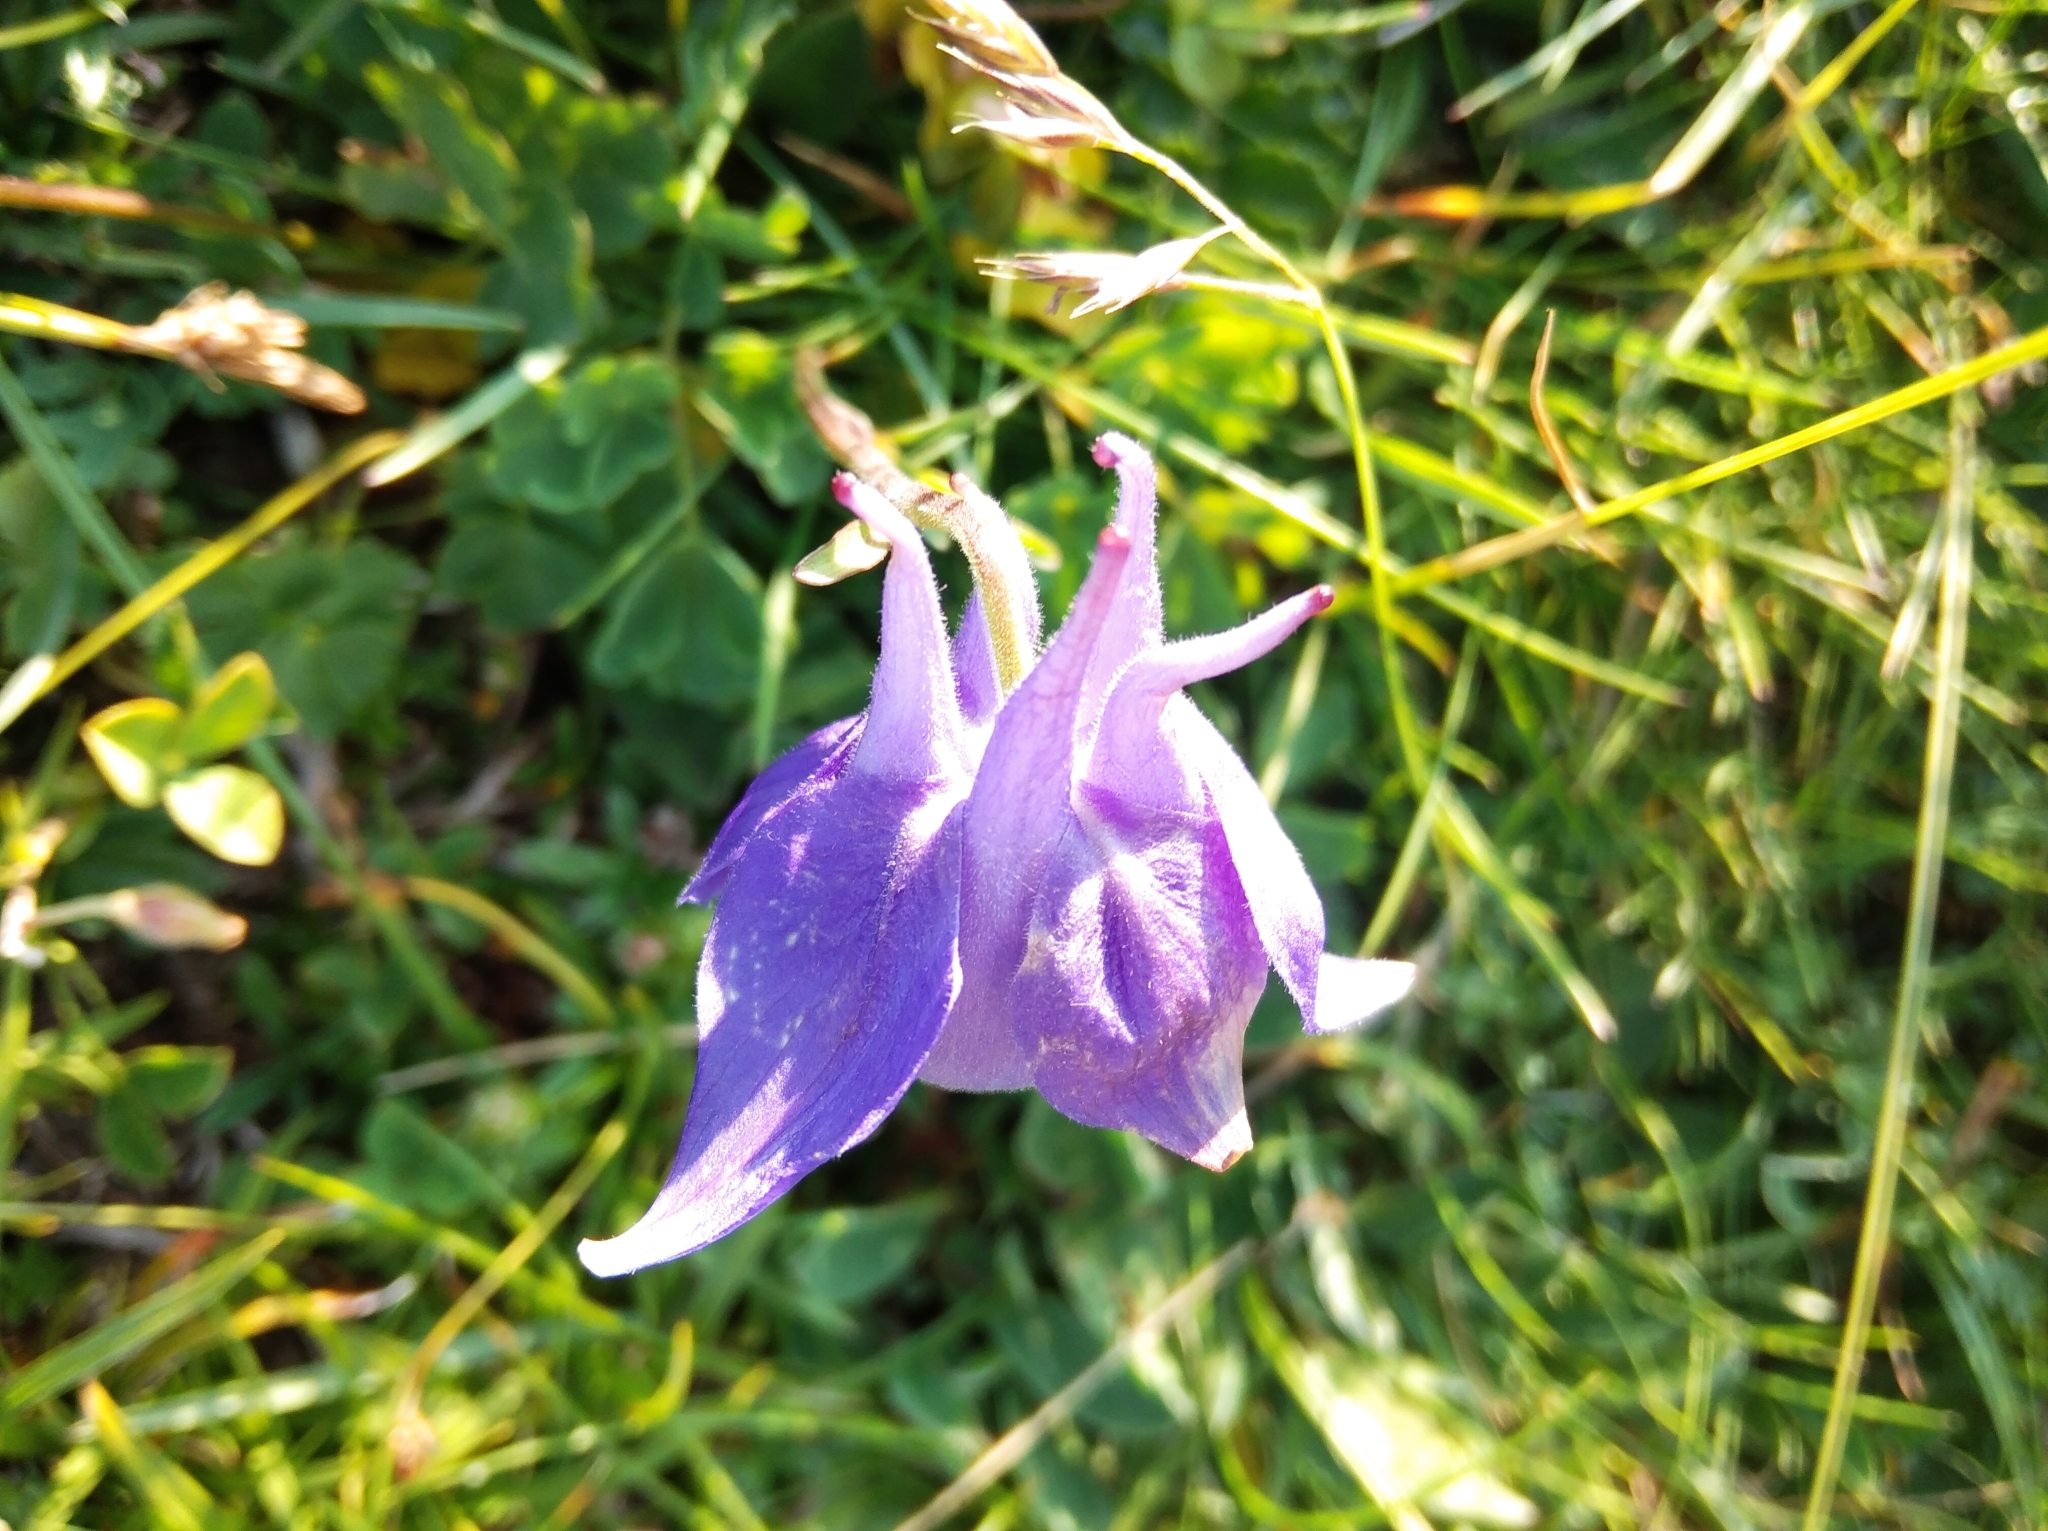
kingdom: Plantae
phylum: Tracheophyta
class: Magnoliopsida
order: Ranunculales
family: Ranunculaceae
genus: Aquilegia
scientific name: Aquilegia pyrenaica
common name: Pyrenean columbine
